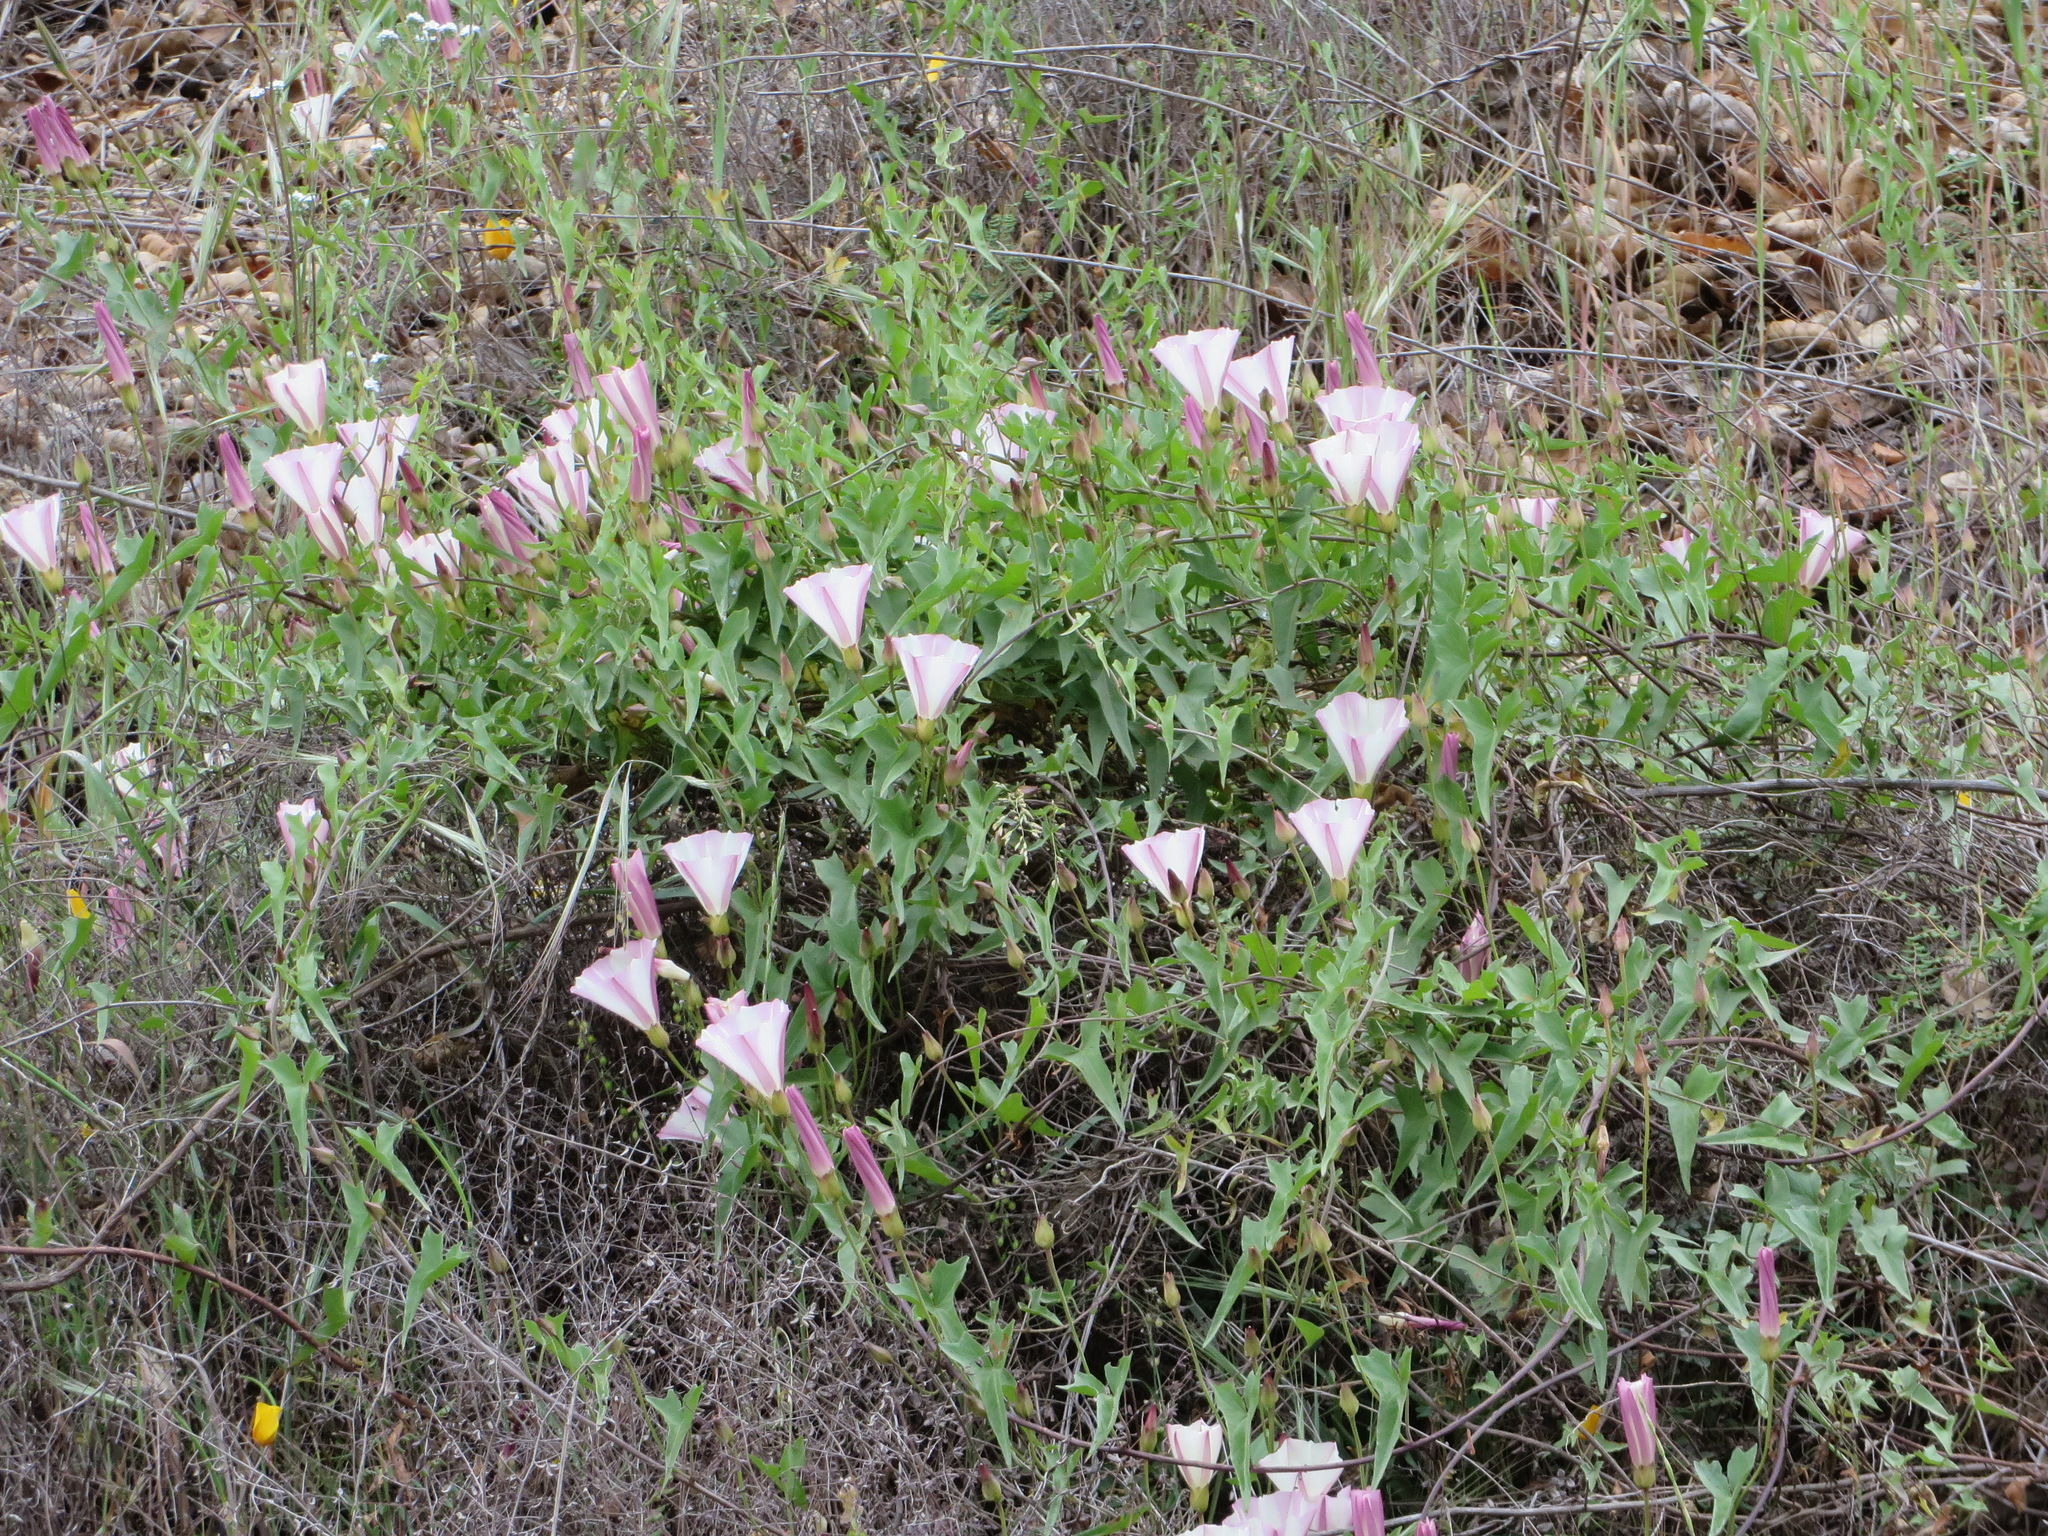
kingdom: Plantae
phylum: Tracheophyta
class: Magnoliopsida
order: Solanales
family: Convolvulaceae
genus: Calystegia
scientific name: Calystegia macrostegia
